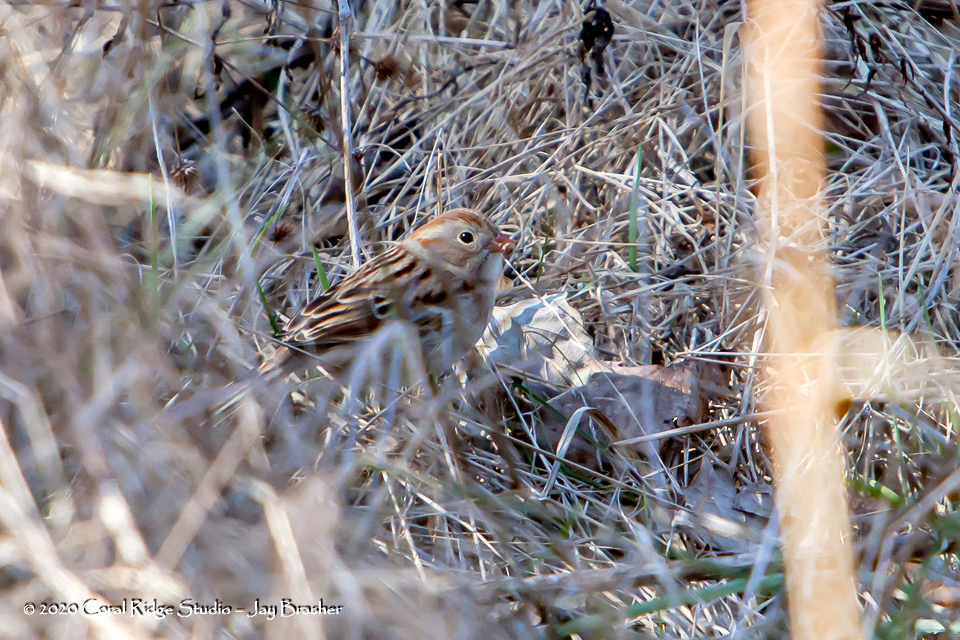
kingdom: Animalia
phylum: Chordata
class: Aves
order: Passeriformes
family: Passerellidae
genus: Spizella
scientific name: Spizella pusilla
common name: Field sparrow
